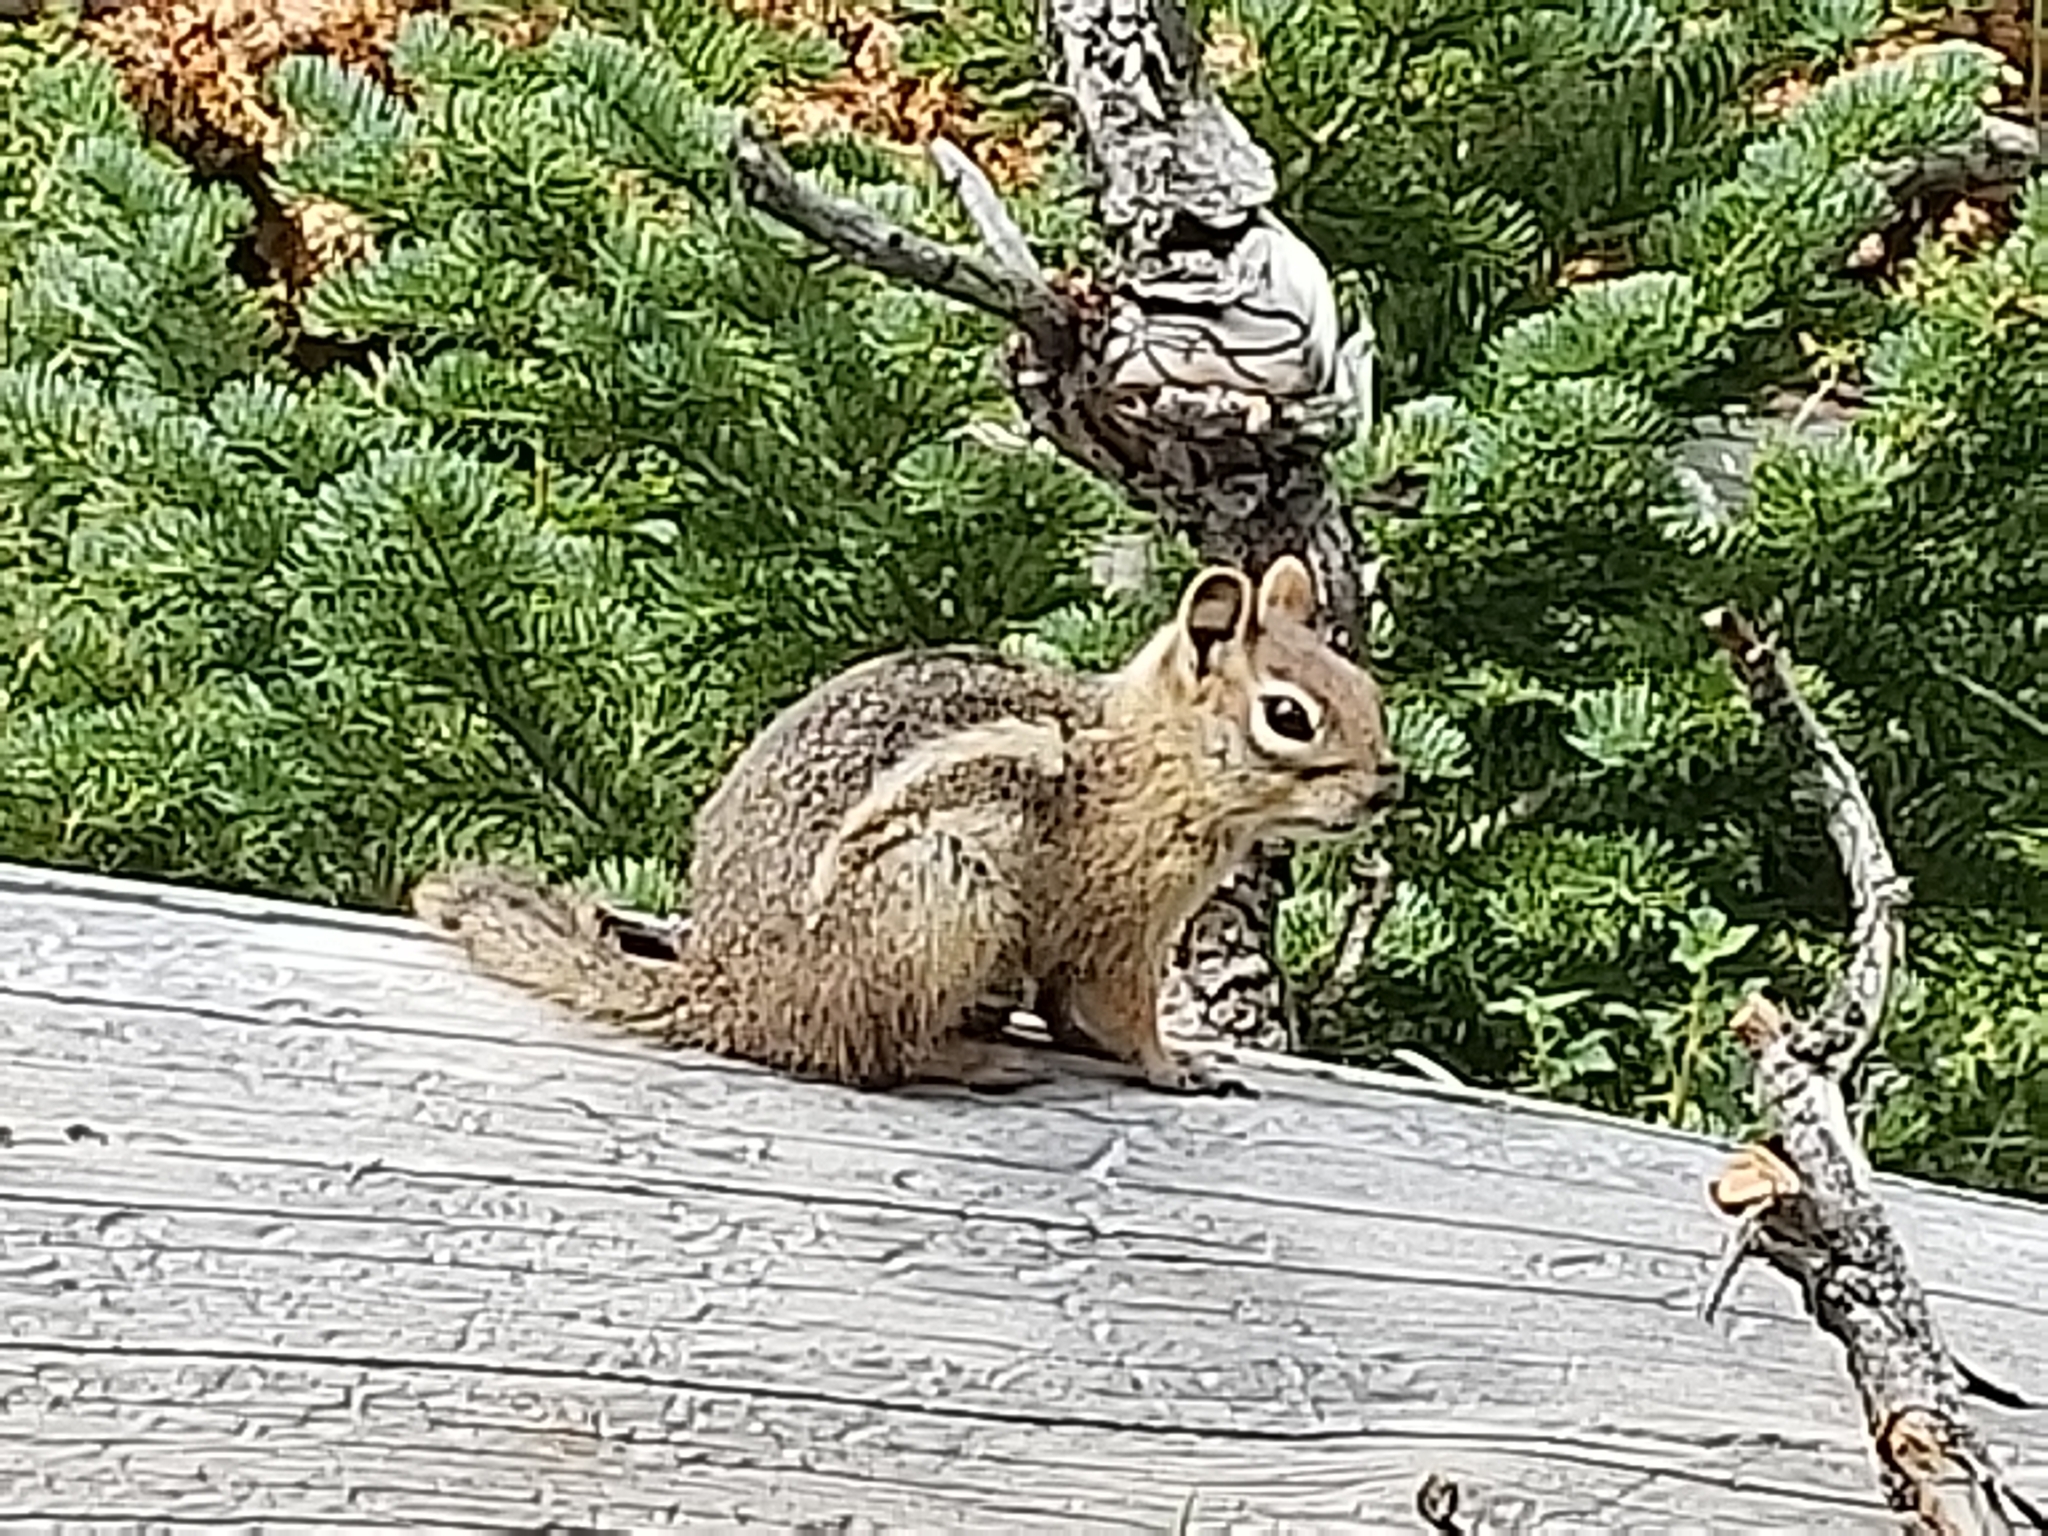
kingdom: Animalia
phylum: Chordata
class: Mammalia
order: Rodentia
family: Sciuridae
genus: Callospermophilus
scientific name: Callospermophilus lateralis
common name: Golden-mantled ground squirrel
